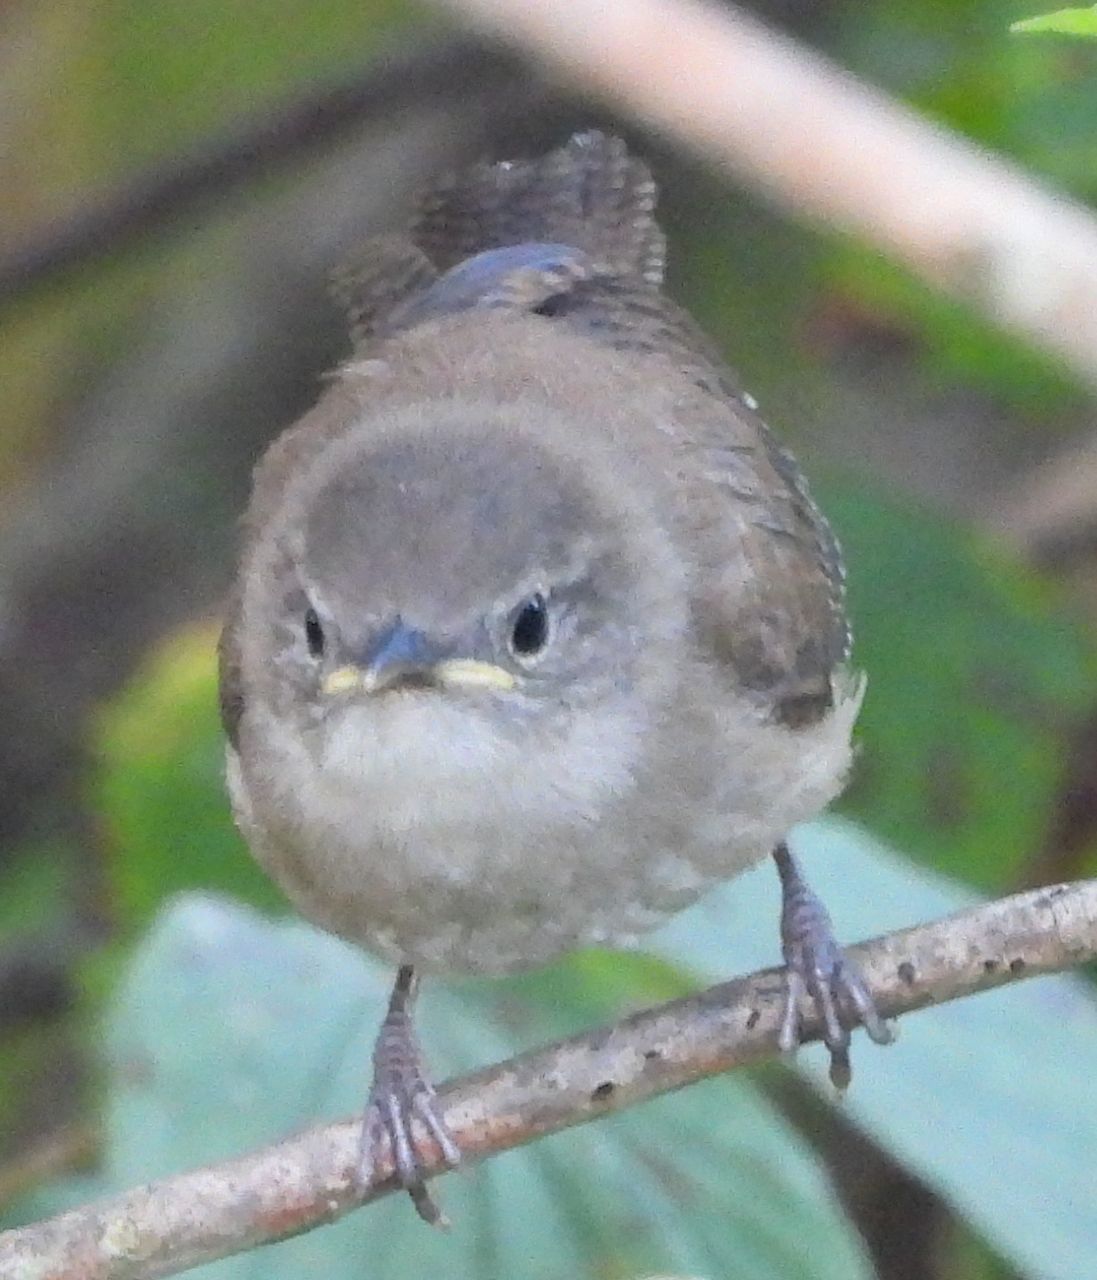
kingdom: Animalia
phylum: Chordata
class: Aves
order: Passeriformes
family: Troglodytidae
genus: Troglodytes
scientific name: Troglodytes aedon
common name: House wren
